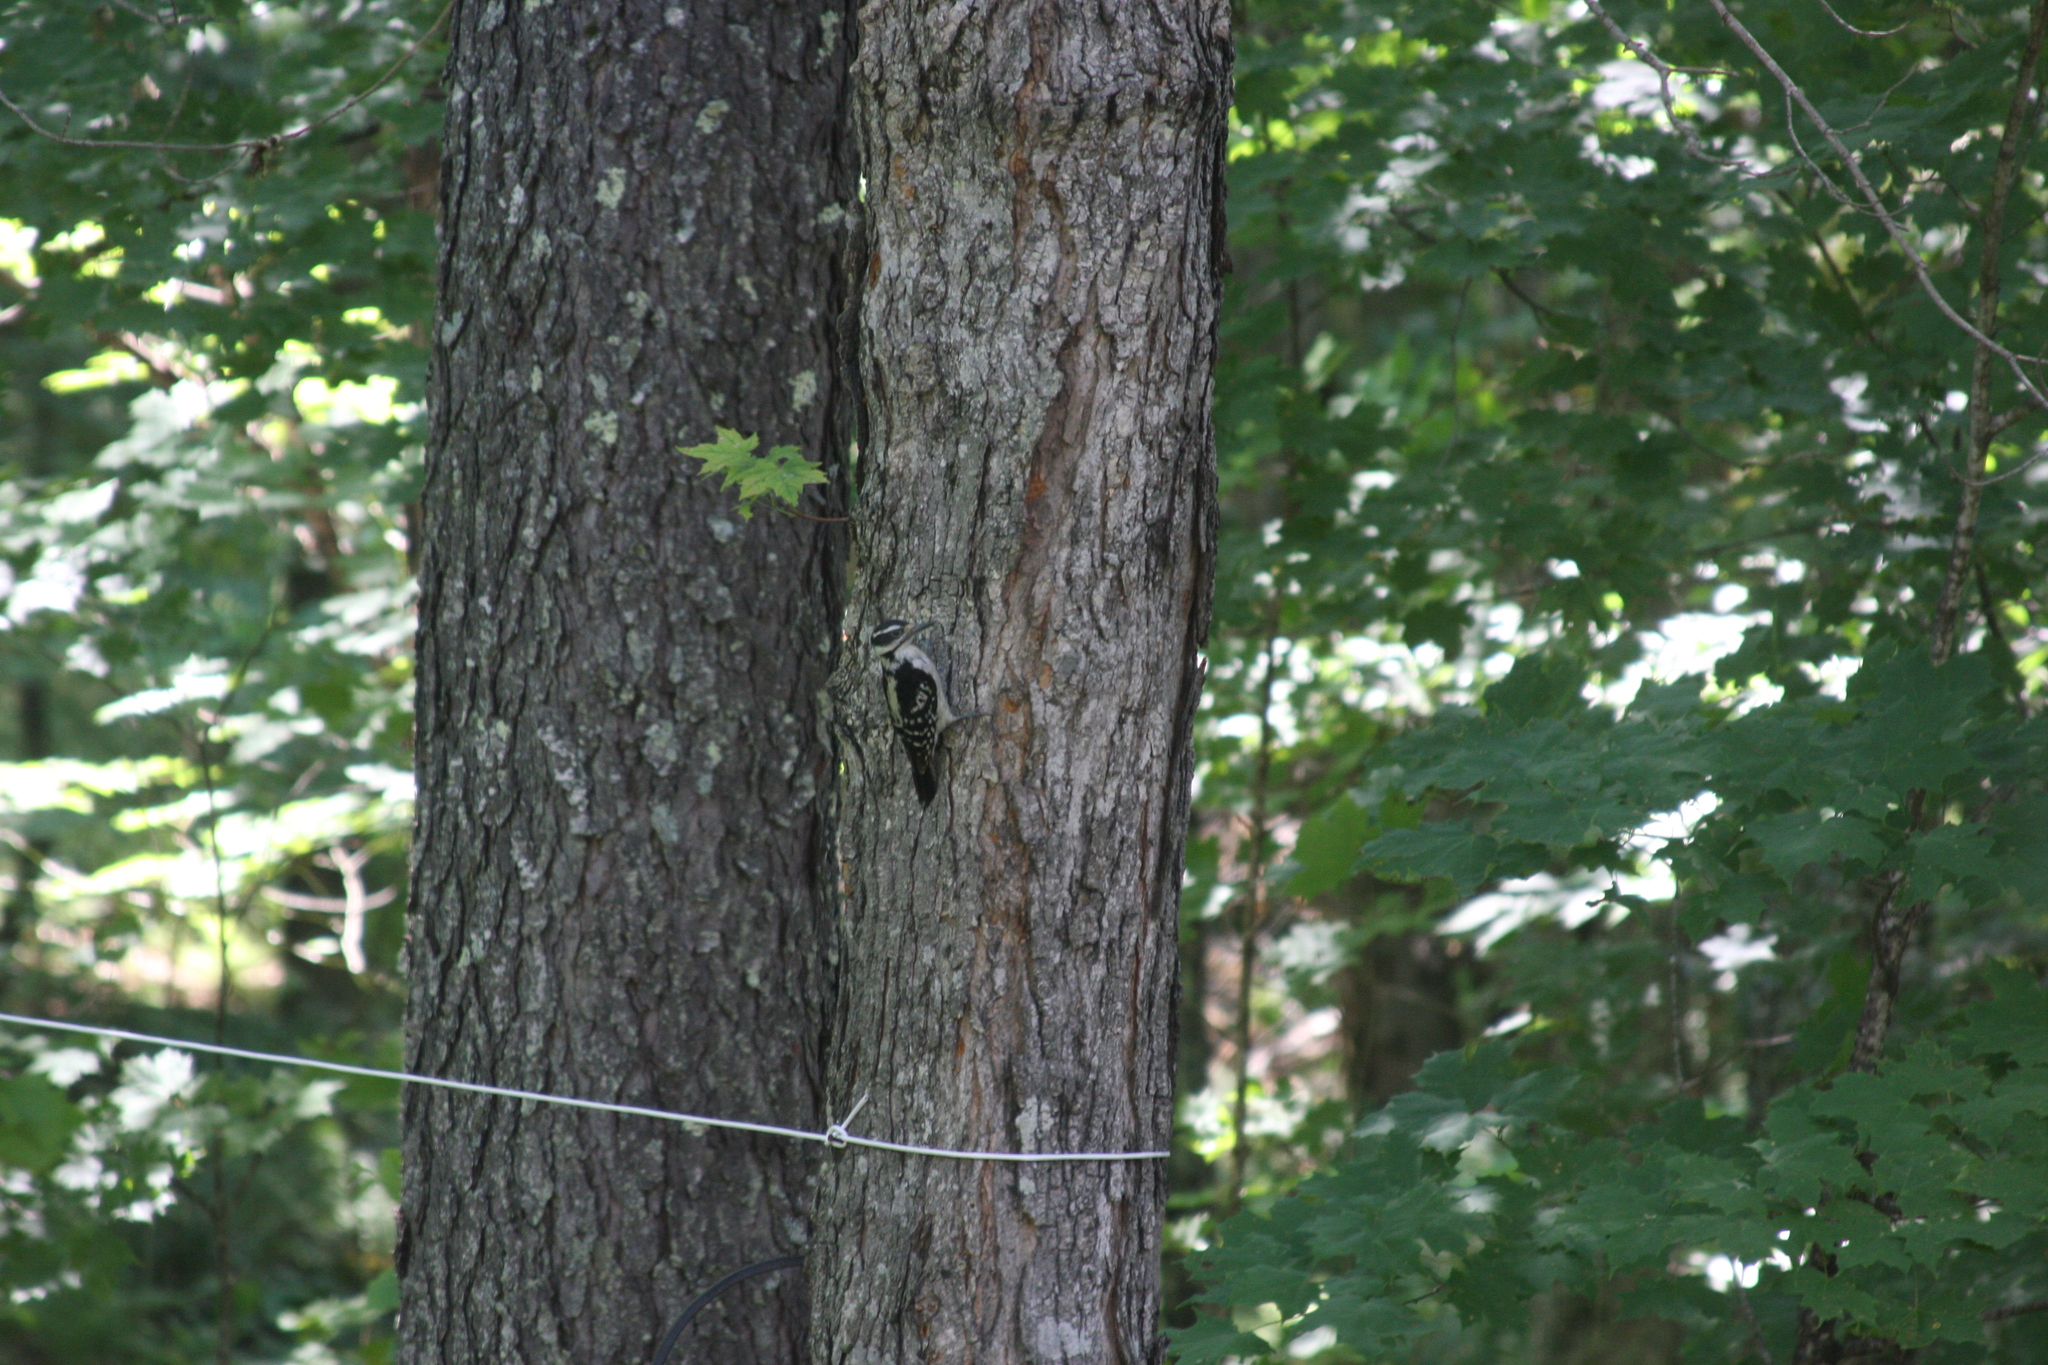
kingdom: Animalia
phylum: Chordata
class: Aves
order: Piciformes
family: Picidae
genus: Leuconotopicus
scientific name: Leuconotopicus villosus
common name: Hairy woodpecker
